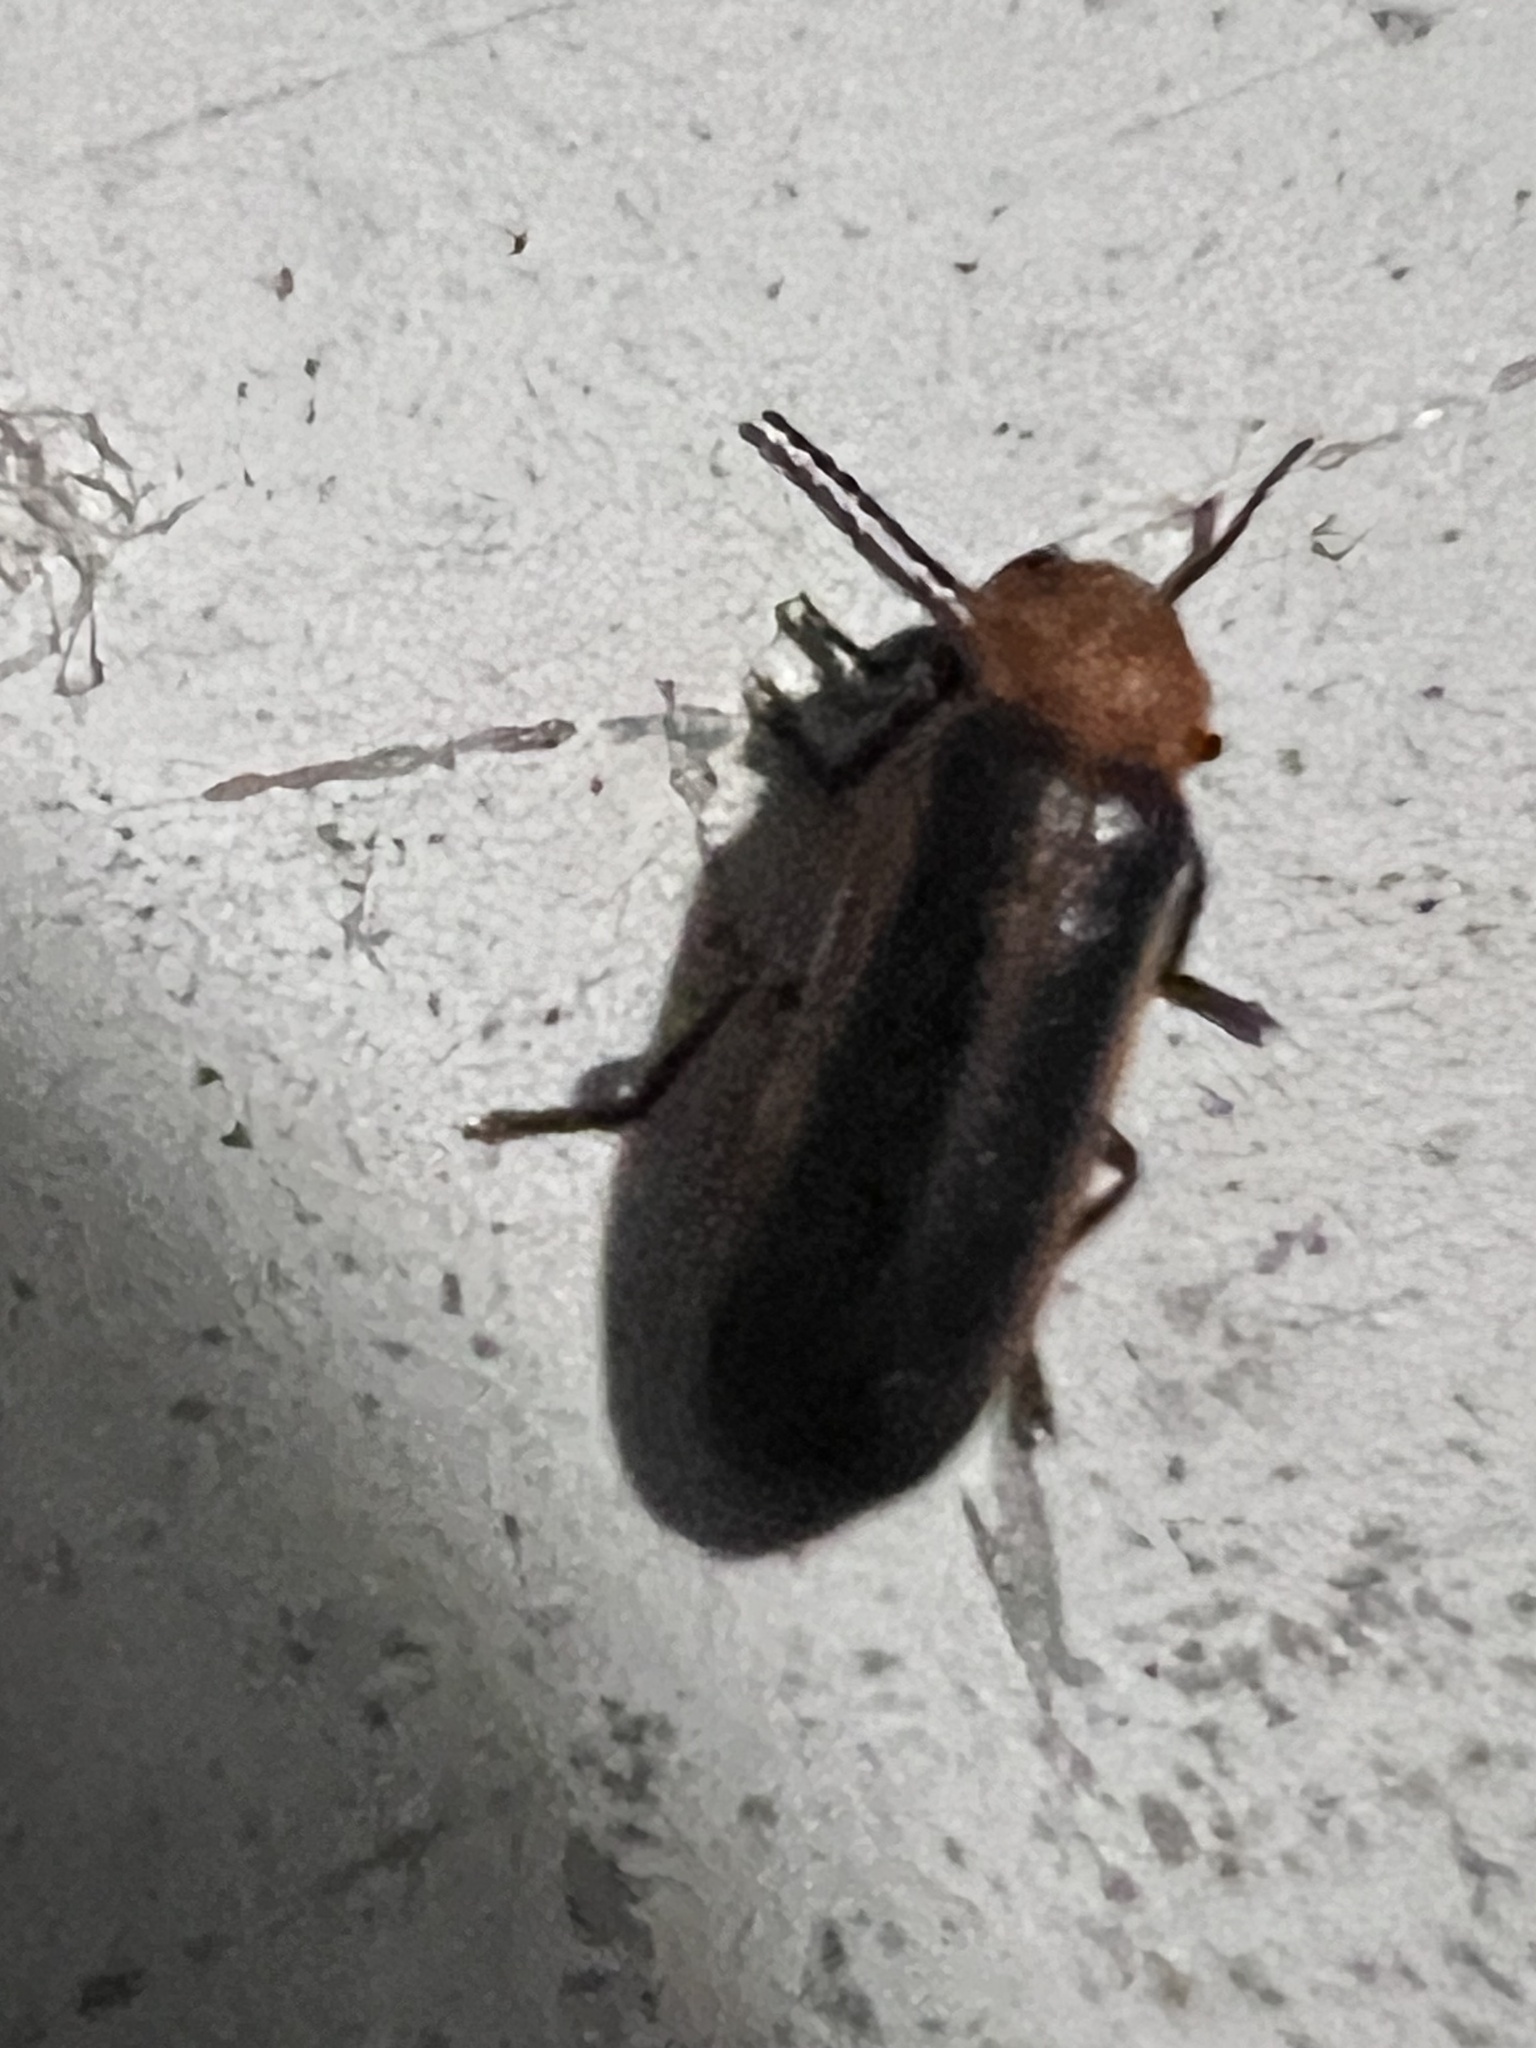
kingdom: Animalia
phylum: Arthropoda
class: Insecta
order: Coleoptera
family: Lampyridae
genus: Australoluciola
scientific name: Australoluciola flavicollis
